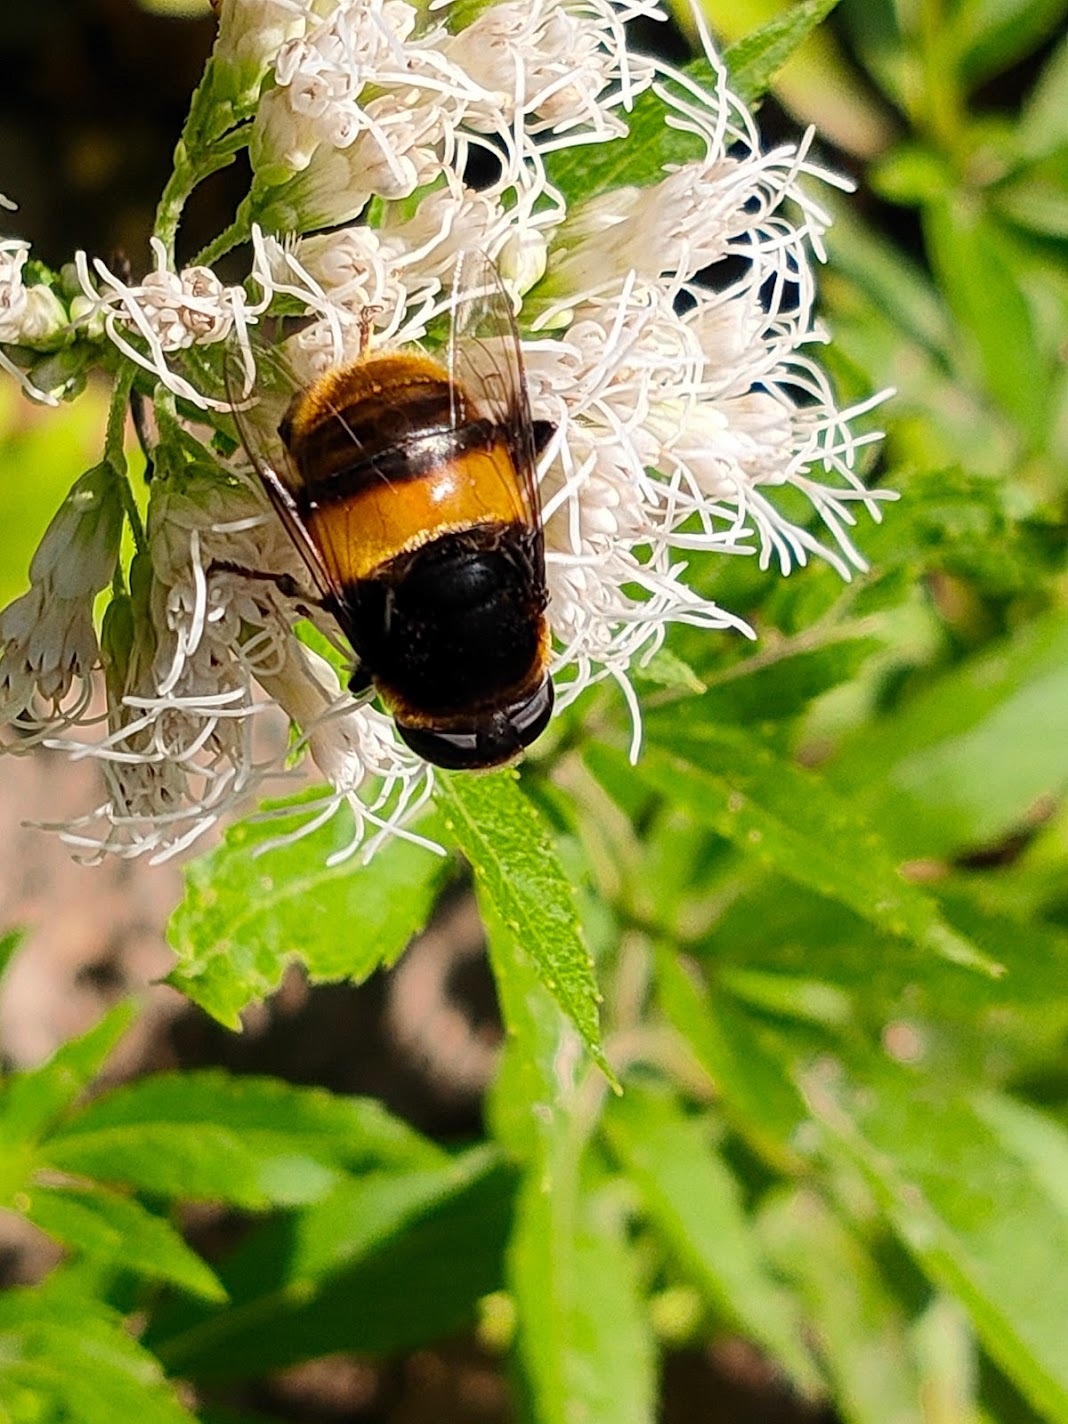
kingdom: Animalia
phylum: Arthropoda
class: Insecta
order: Diptera
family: Syrphidae
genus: Phytomia
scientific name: Phytomia zonata
